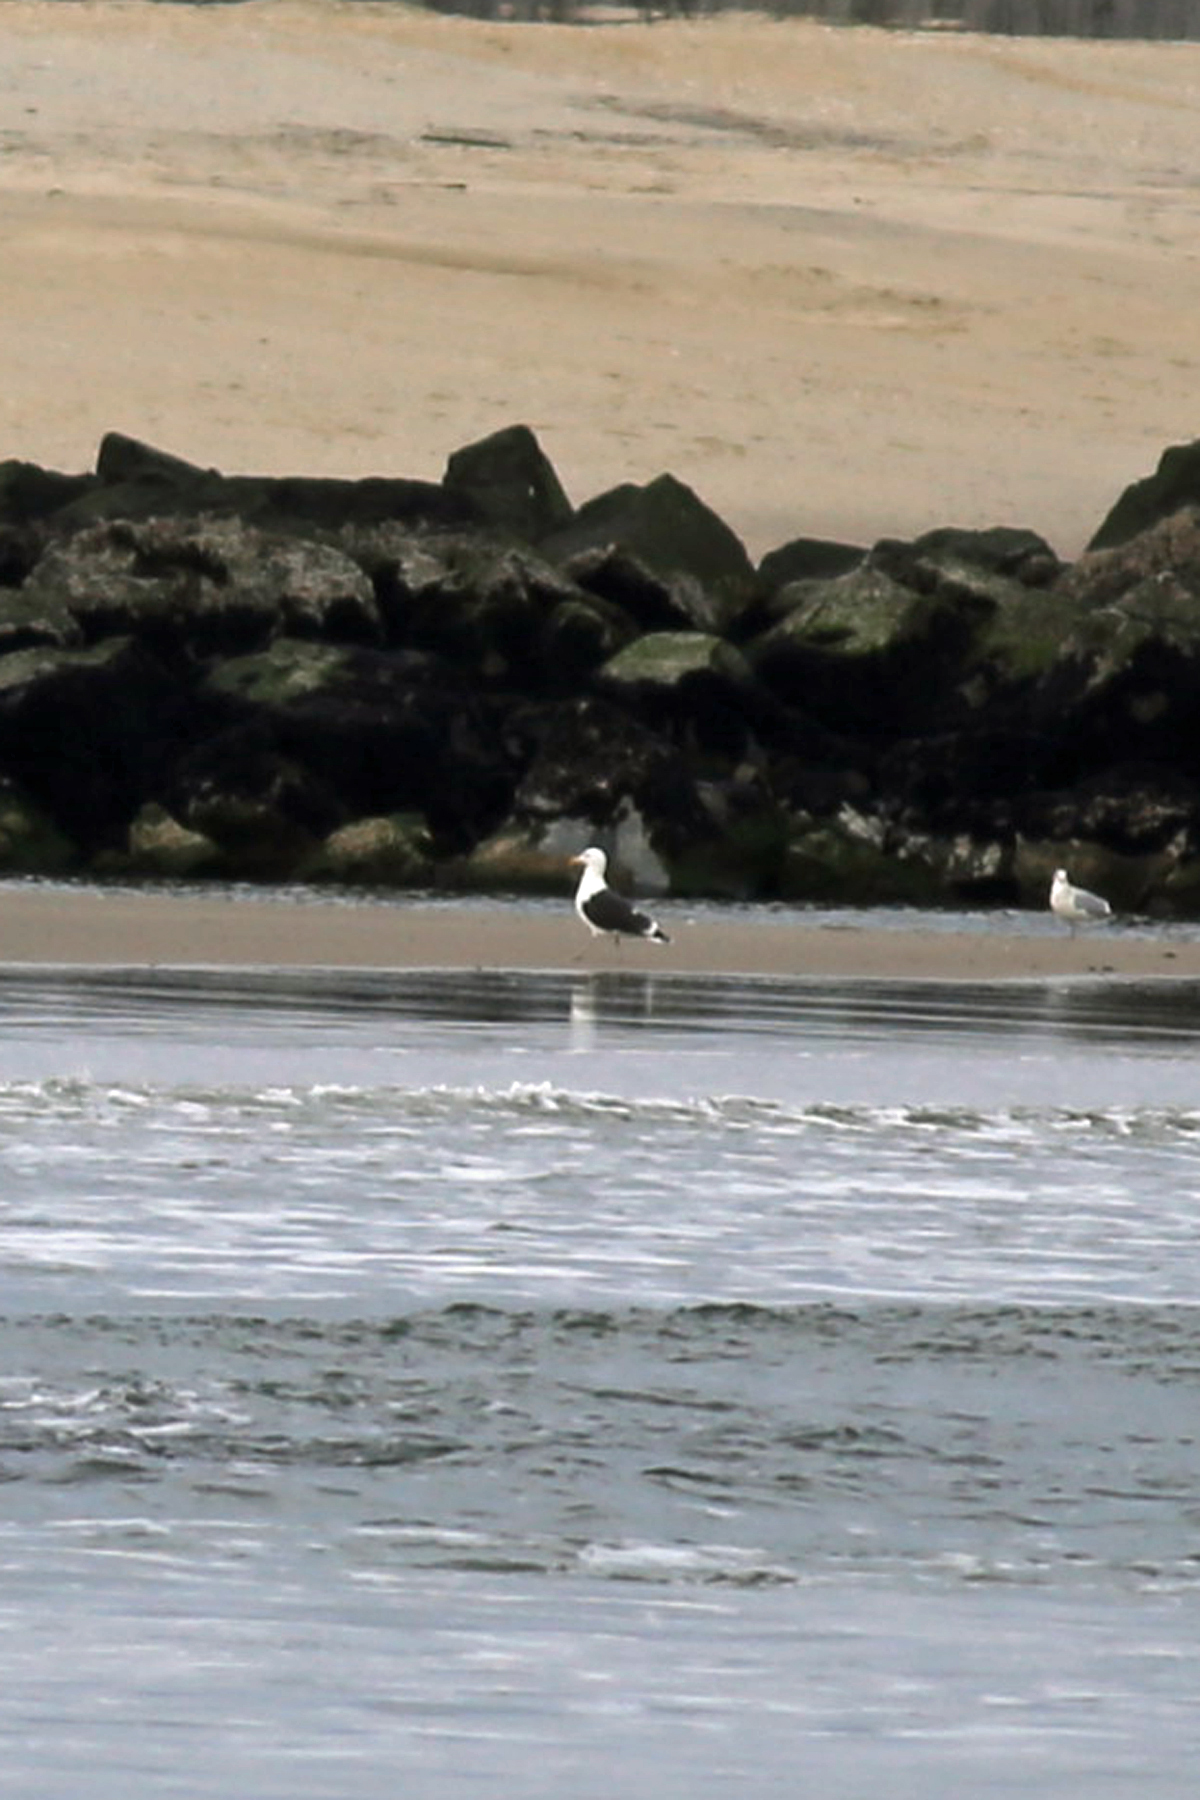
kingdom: Animalia
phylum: Chordata
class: Aves
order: Charadriiformes
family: Laridae
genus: Larus
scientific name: Larus marinus
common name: Great black-backed gull
